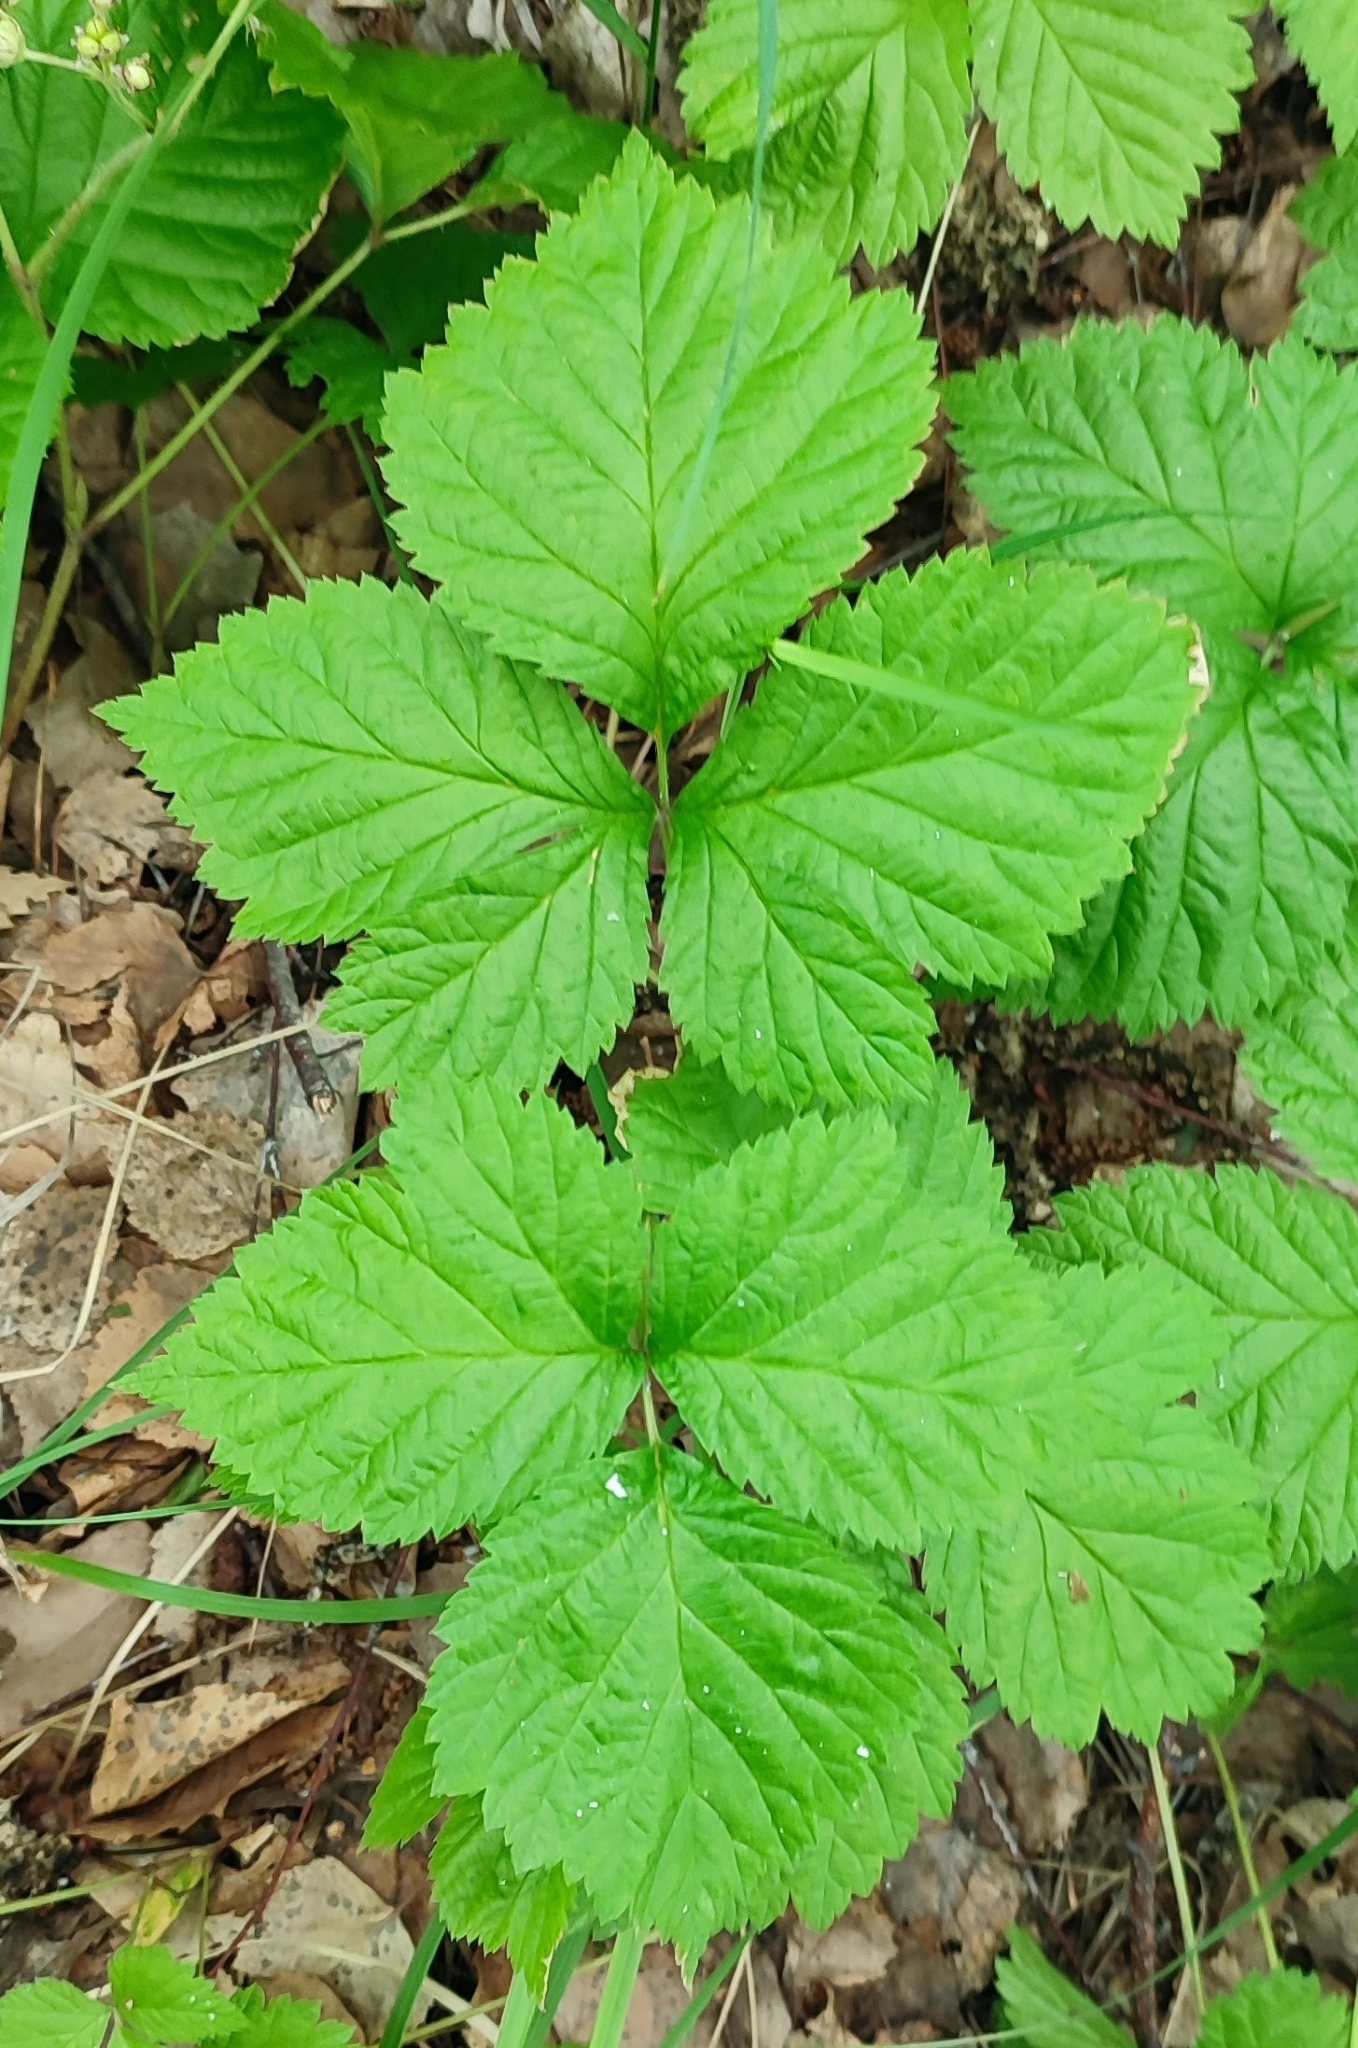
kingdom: Plantae
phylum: Tracheophyta
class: Magnoliopsida
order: Rosales
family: Rosaceae
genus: Rubus
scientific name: Rubus saxatilis
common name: Stone bramble
